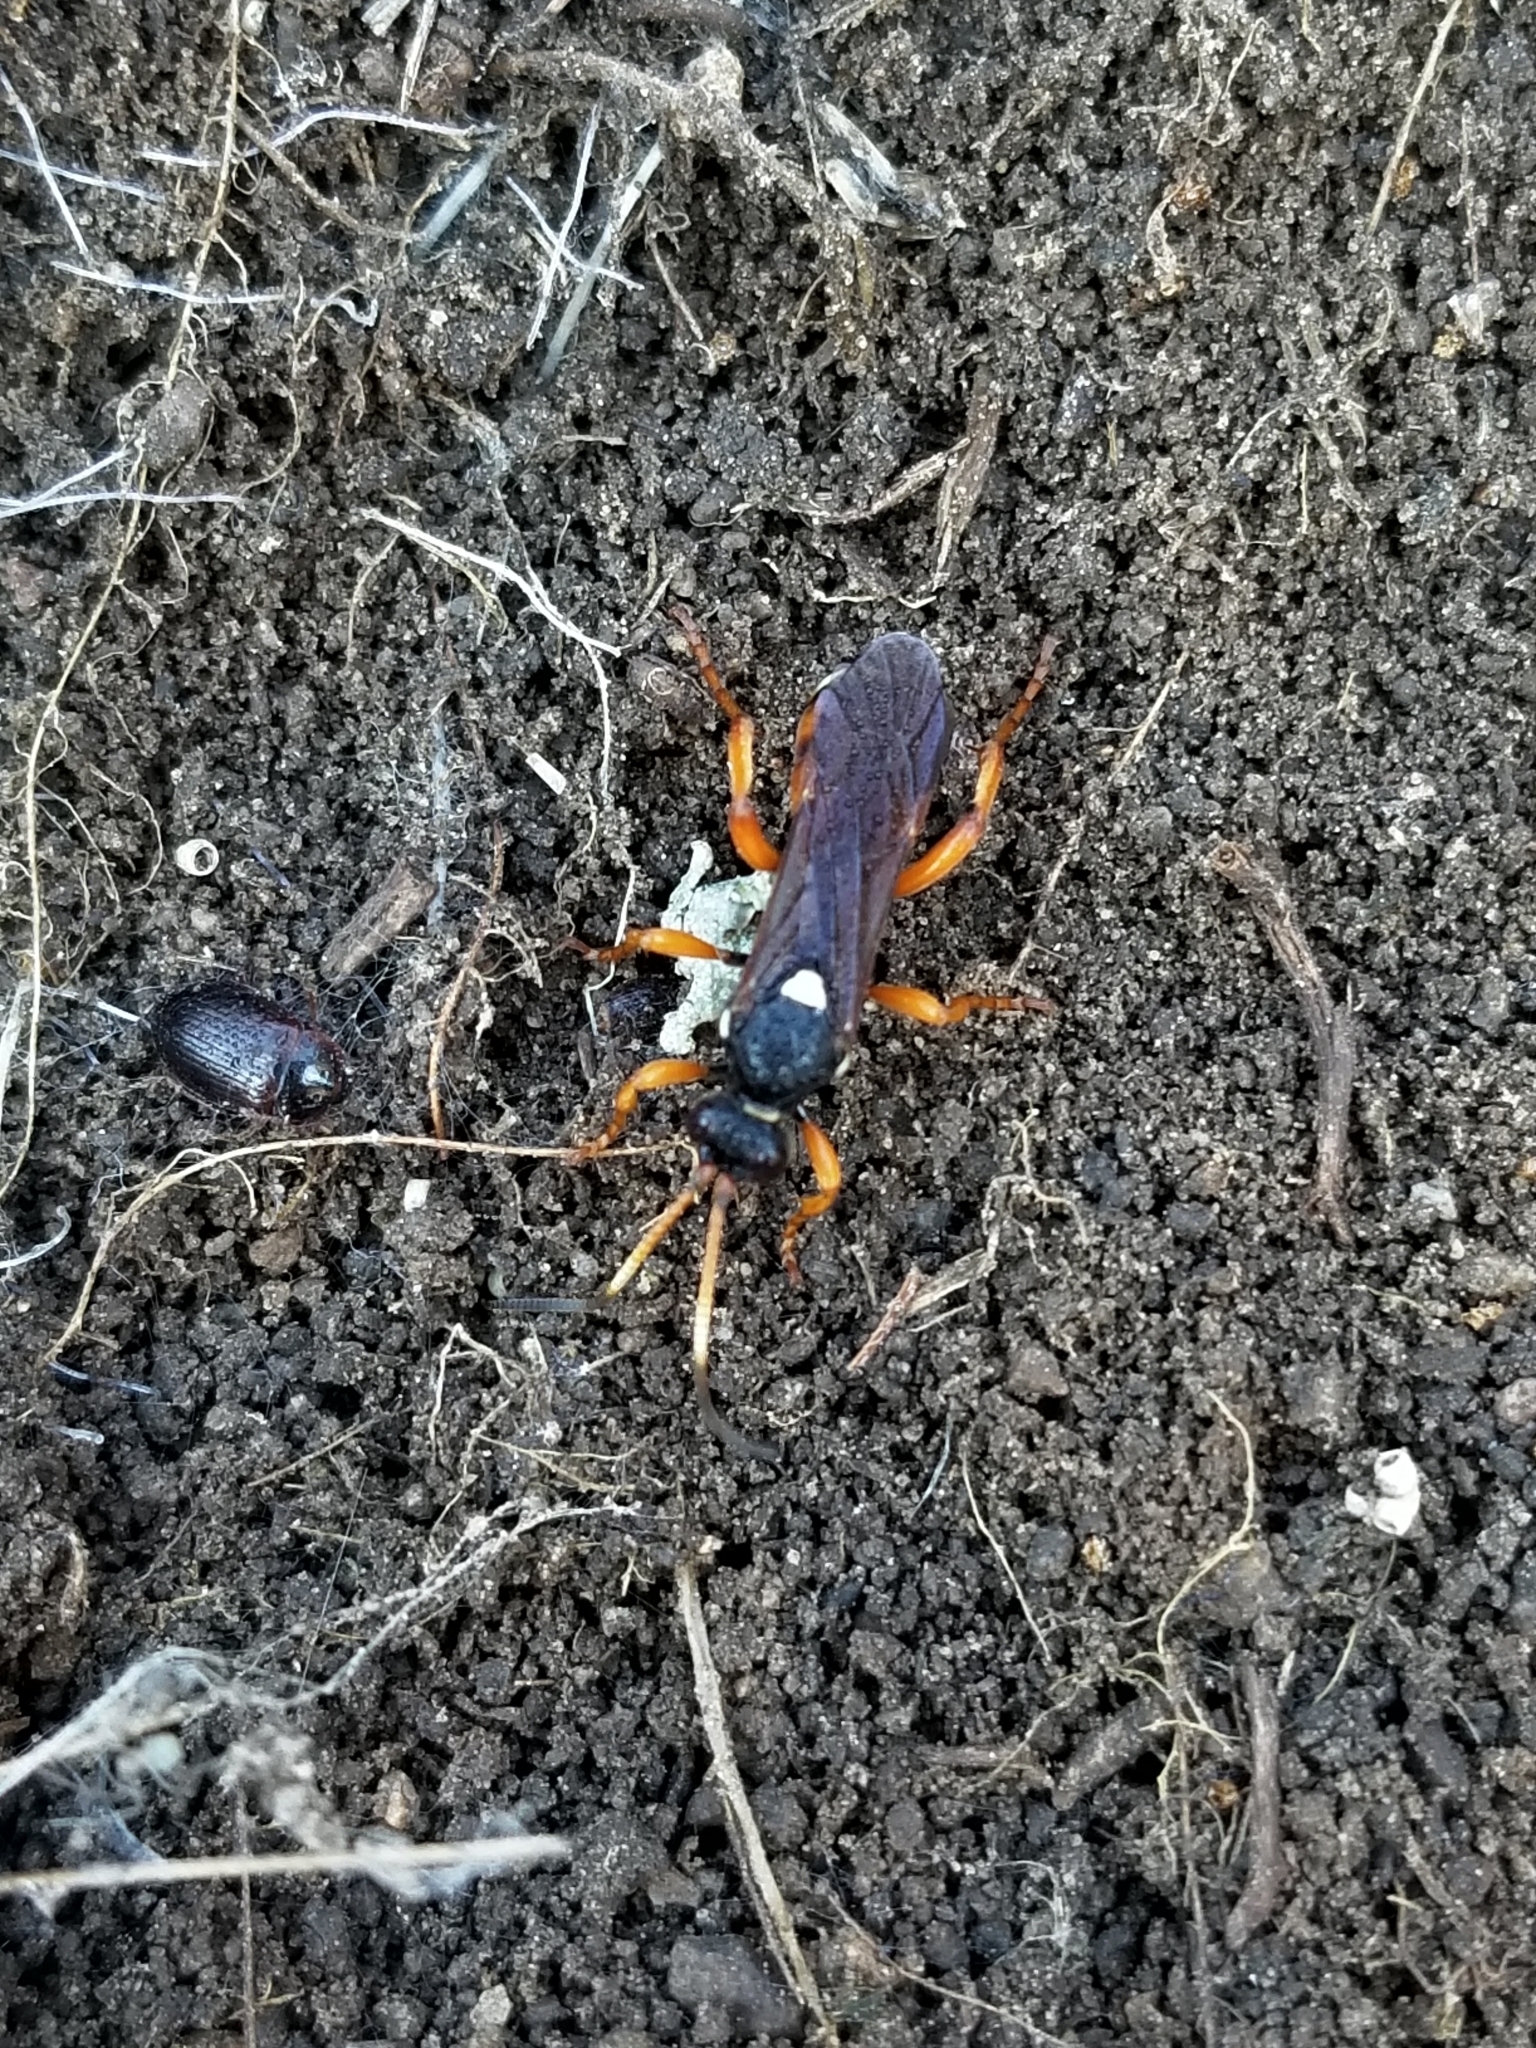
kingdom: Animalia
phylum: Arthropoda
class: Insecta
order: Hymenoptera
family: Ichneumonidae
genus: Ichneumon
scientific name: Ichneumon ambulatorius
